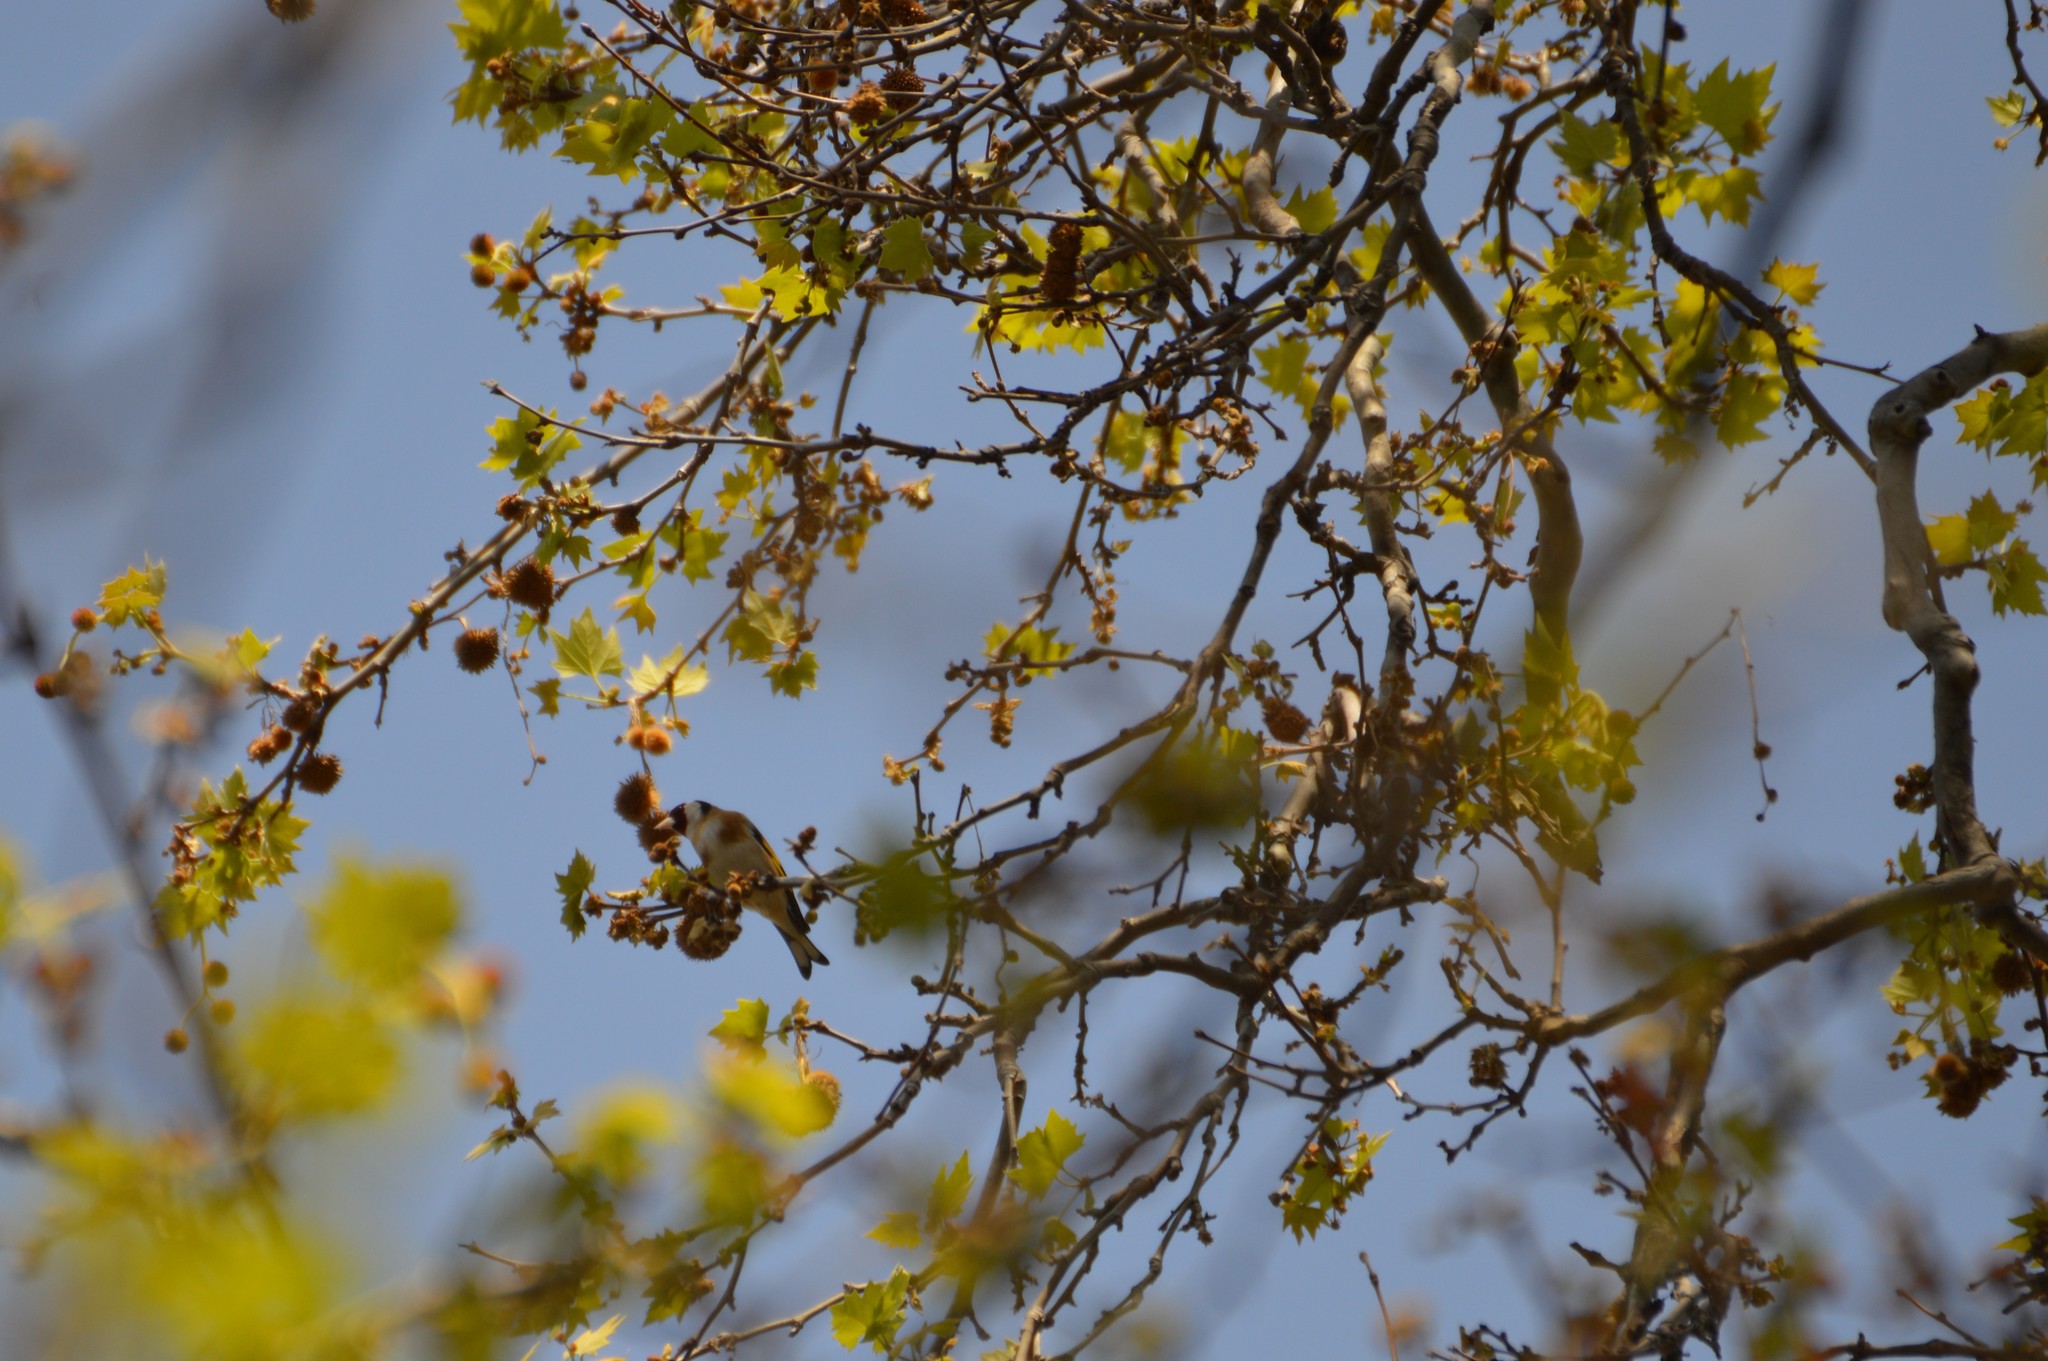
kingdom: Animalia
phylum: Chordata
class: Aves
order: Passeriformes
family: Fringillidae
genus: Carduelis
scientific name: Carduelis carduelis
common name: European goldfinch
